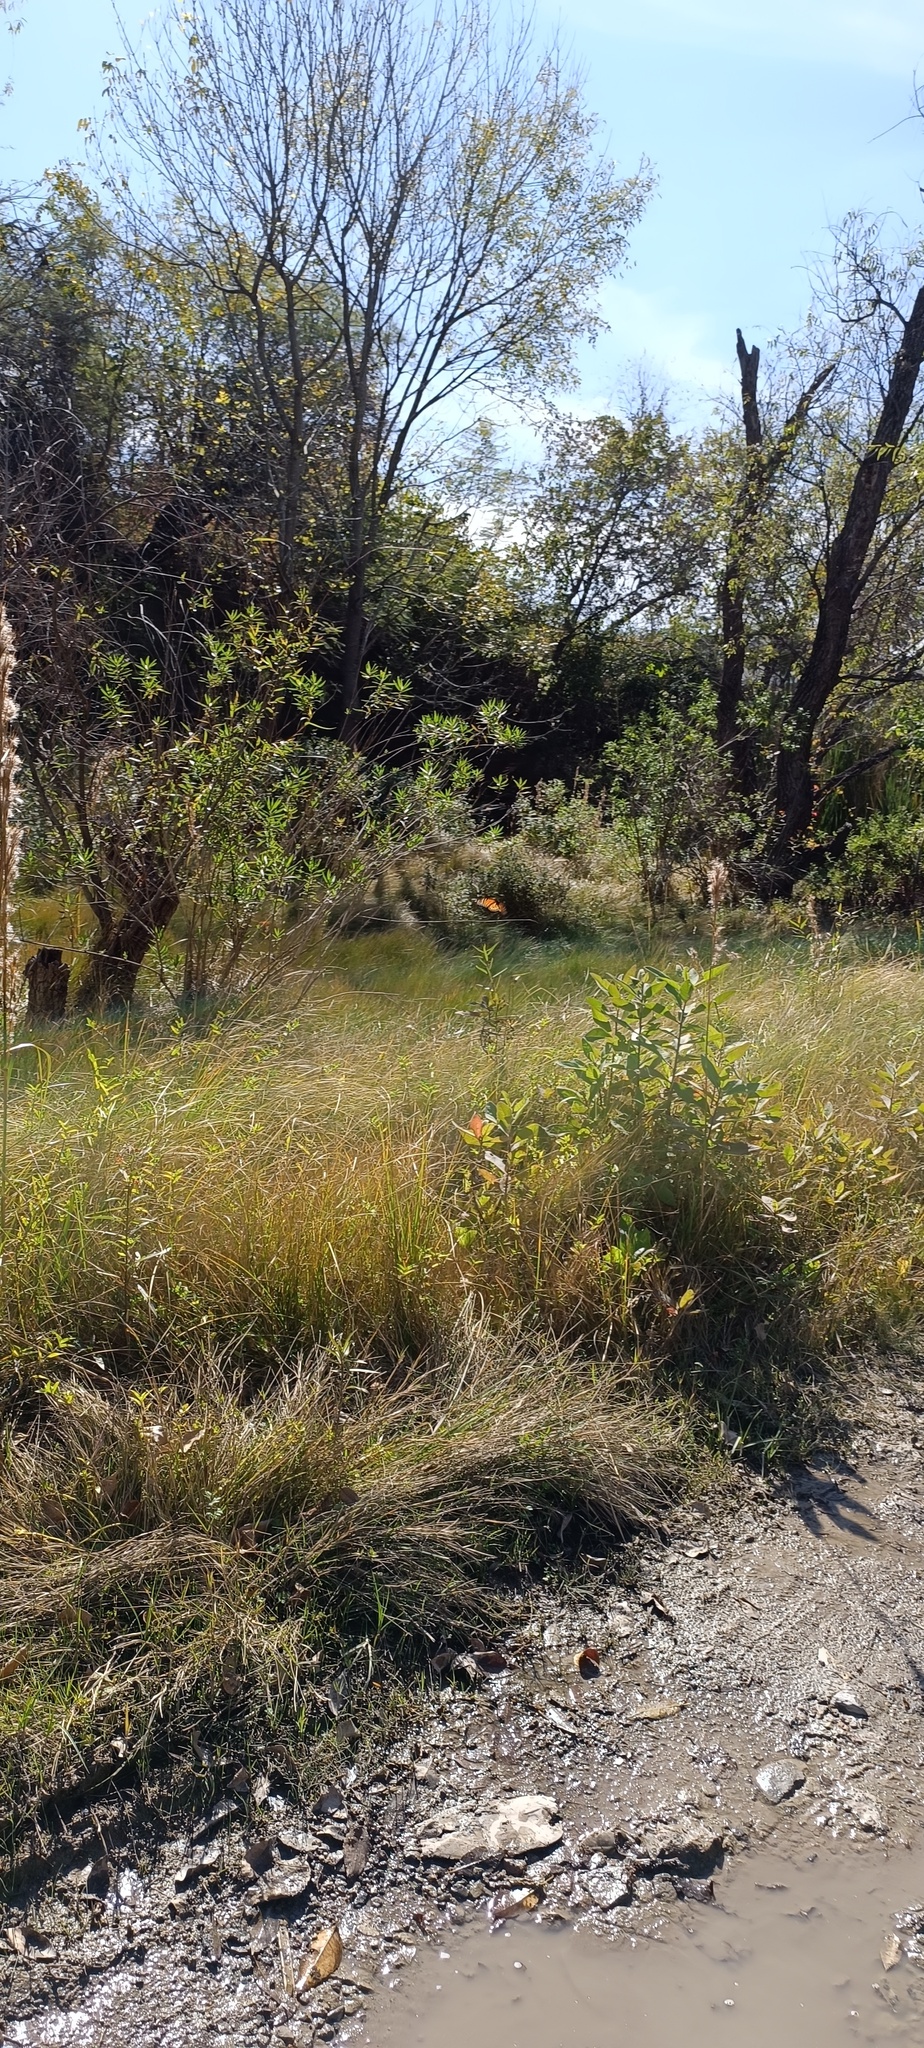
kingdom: Animalia
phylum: Arthropoda
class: Insecta
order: Lepidoptera
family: Nymphalidae
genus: Danaus
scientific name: Danaus plexippus
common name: Monarch
